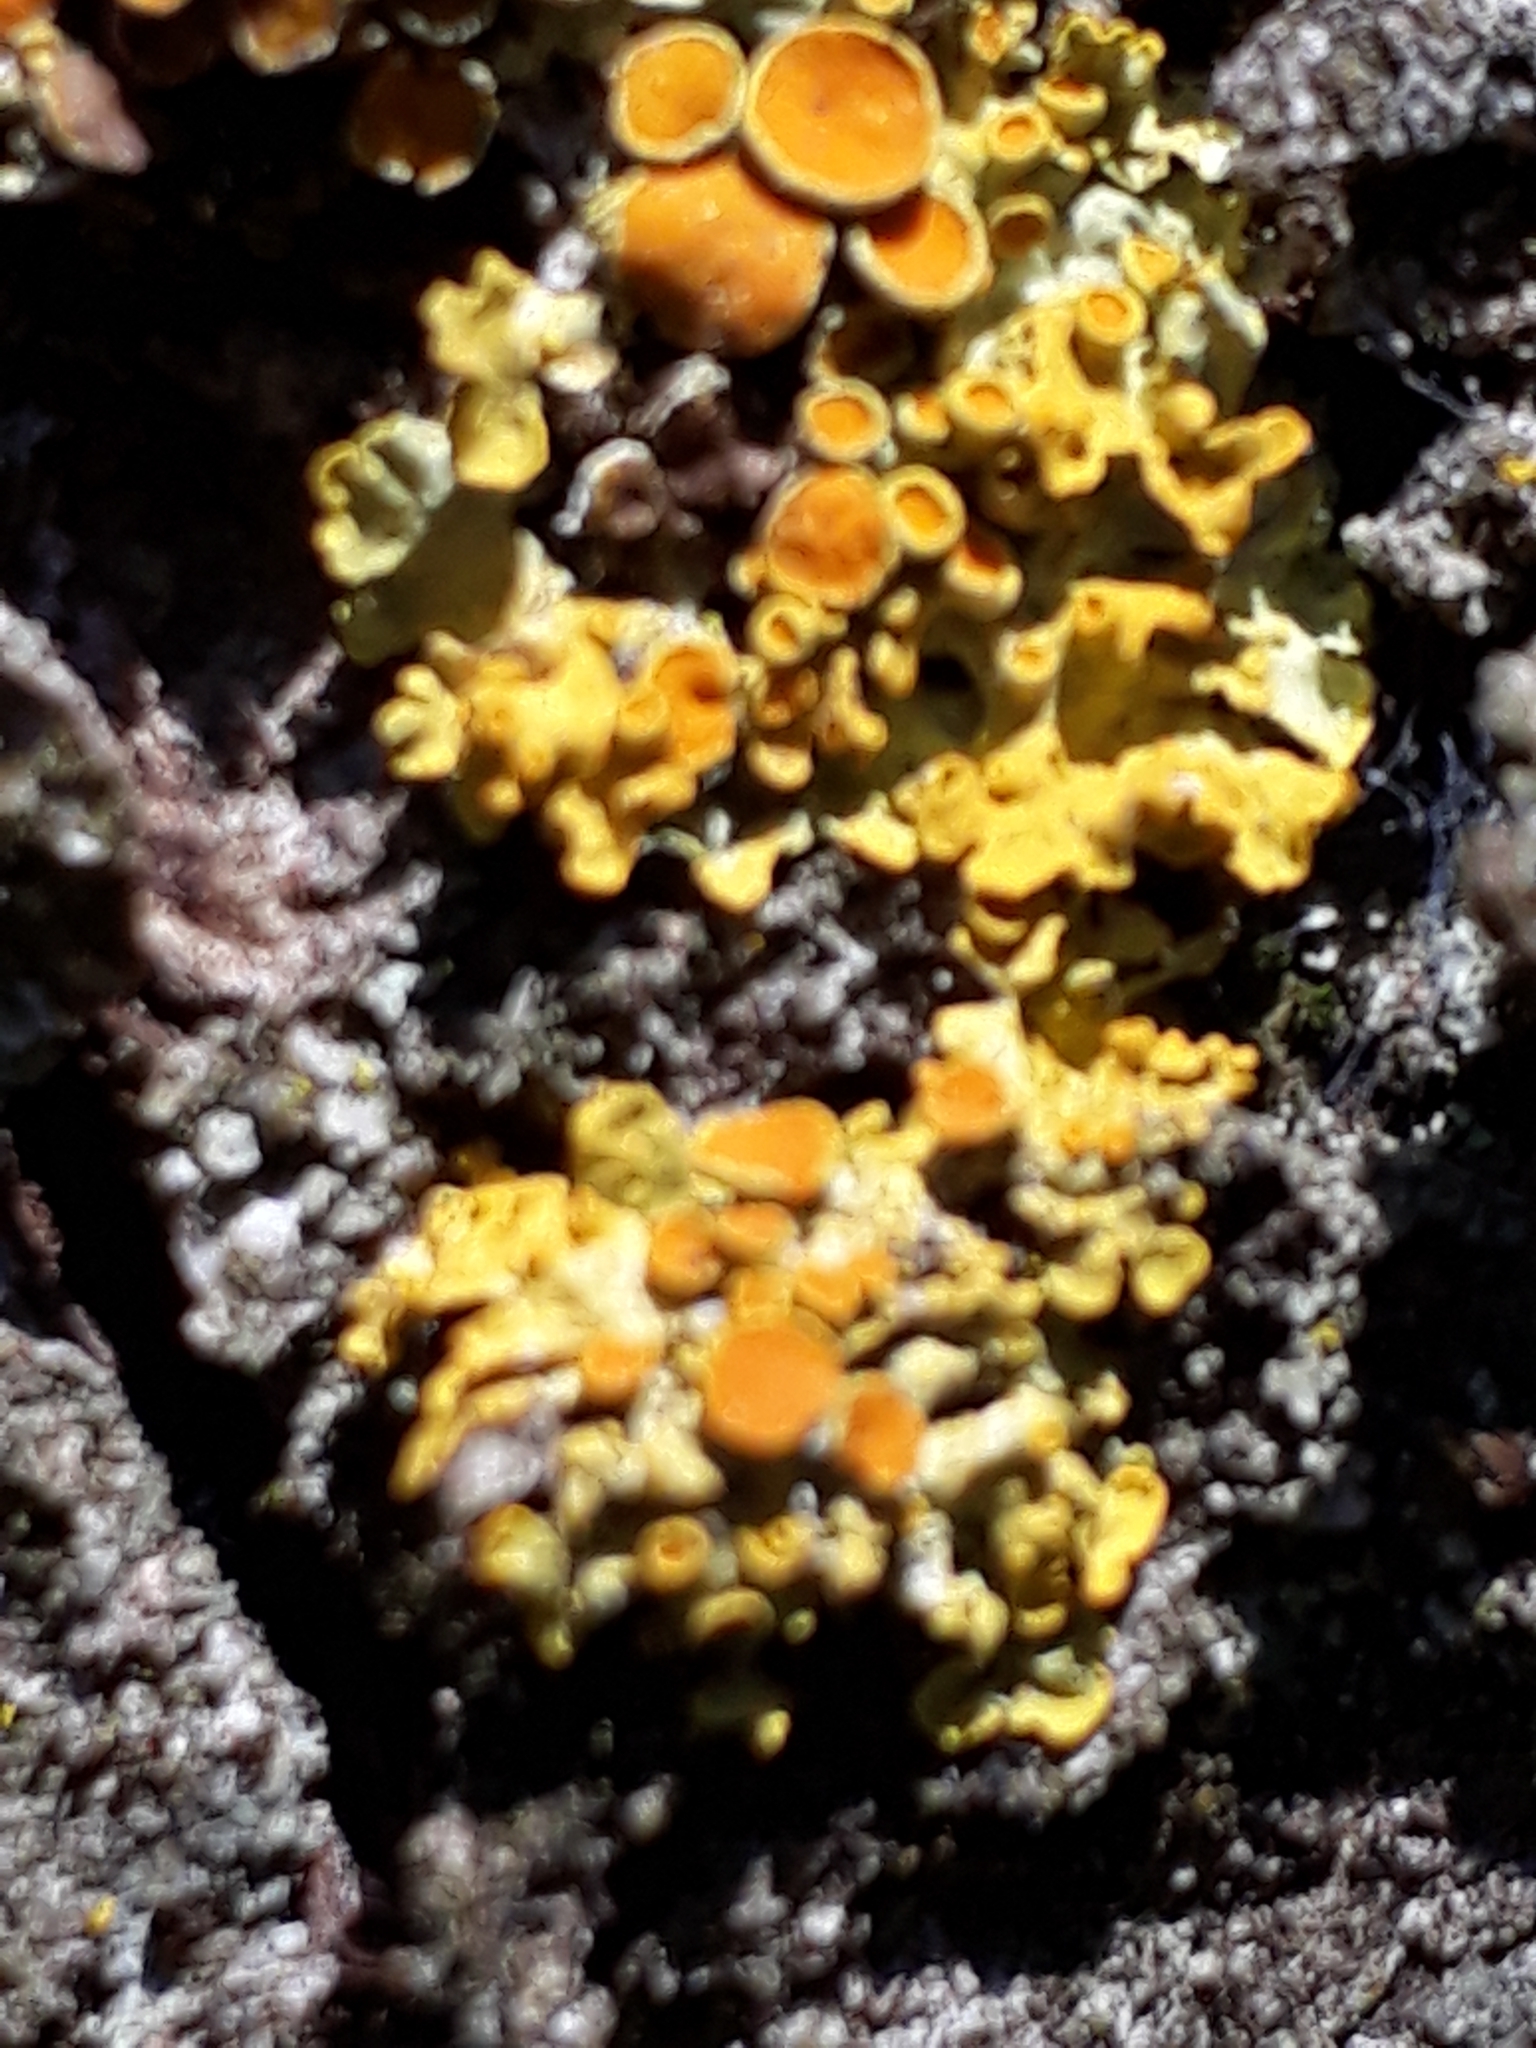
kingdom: Fungi
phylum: Ascomycota
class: Lecanoromycetes
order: Teloschistales
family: Teloschistaceae
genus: Xanthoria
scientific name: Xanthoria parietina
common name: Common orange lichen
